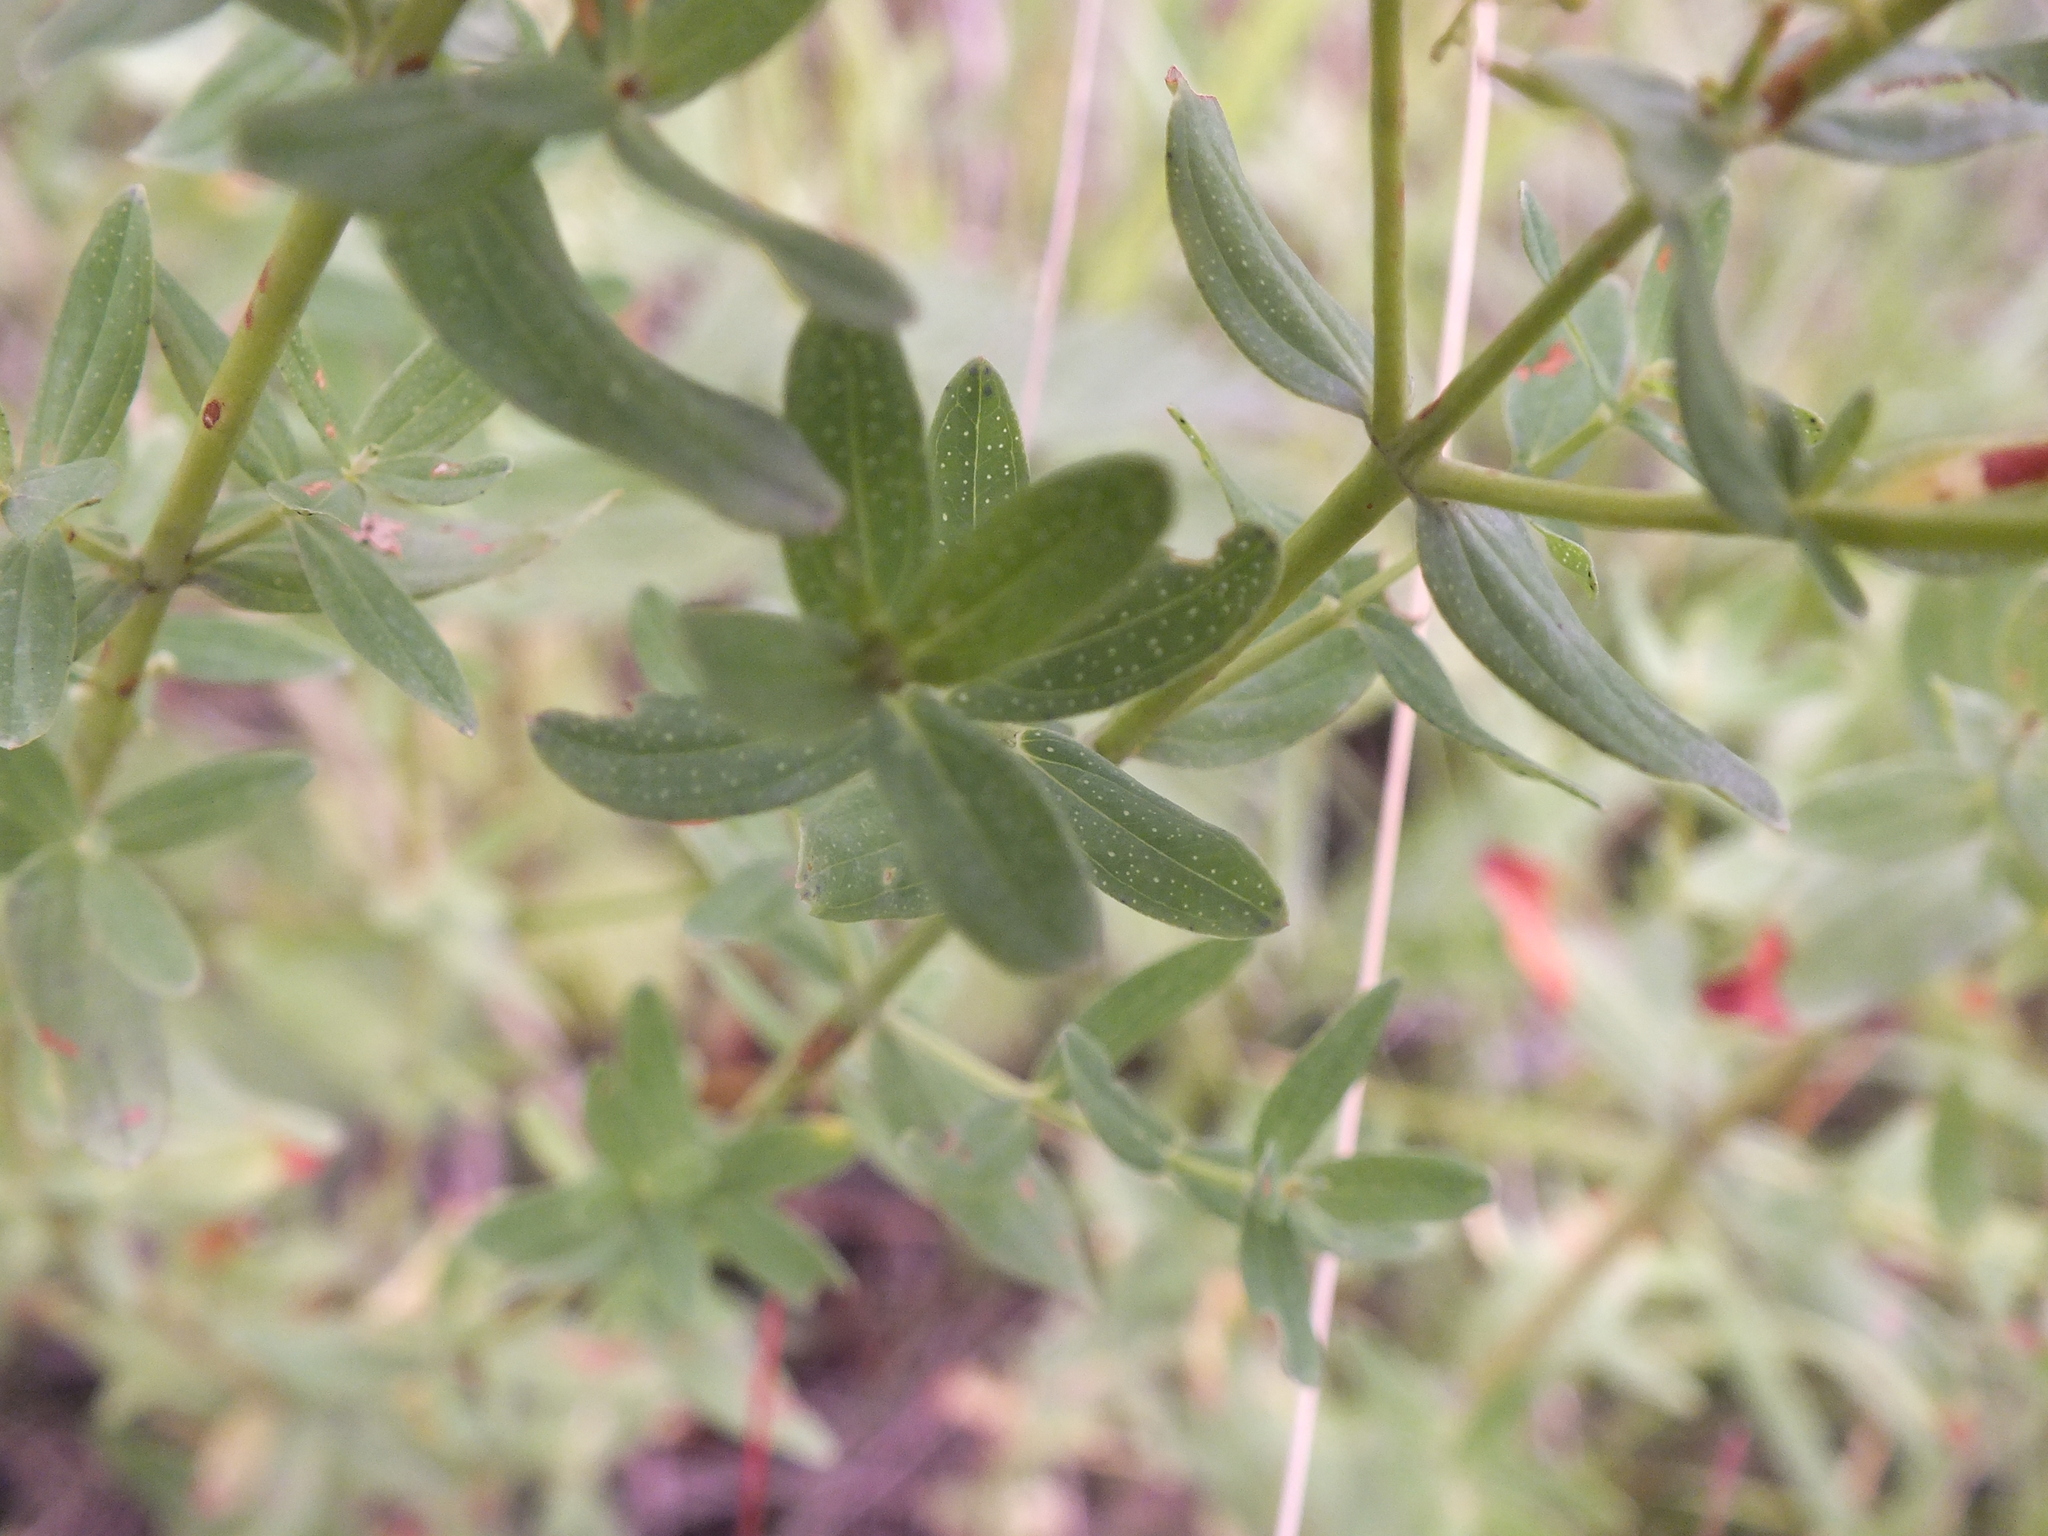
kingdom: Plantae
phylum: Tracheophyta
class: Magnoliopsida
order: Malpighiales
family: Hypericaceae
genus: Hypericum
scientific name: Hypericum perforatum
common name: Common st. johnswort
